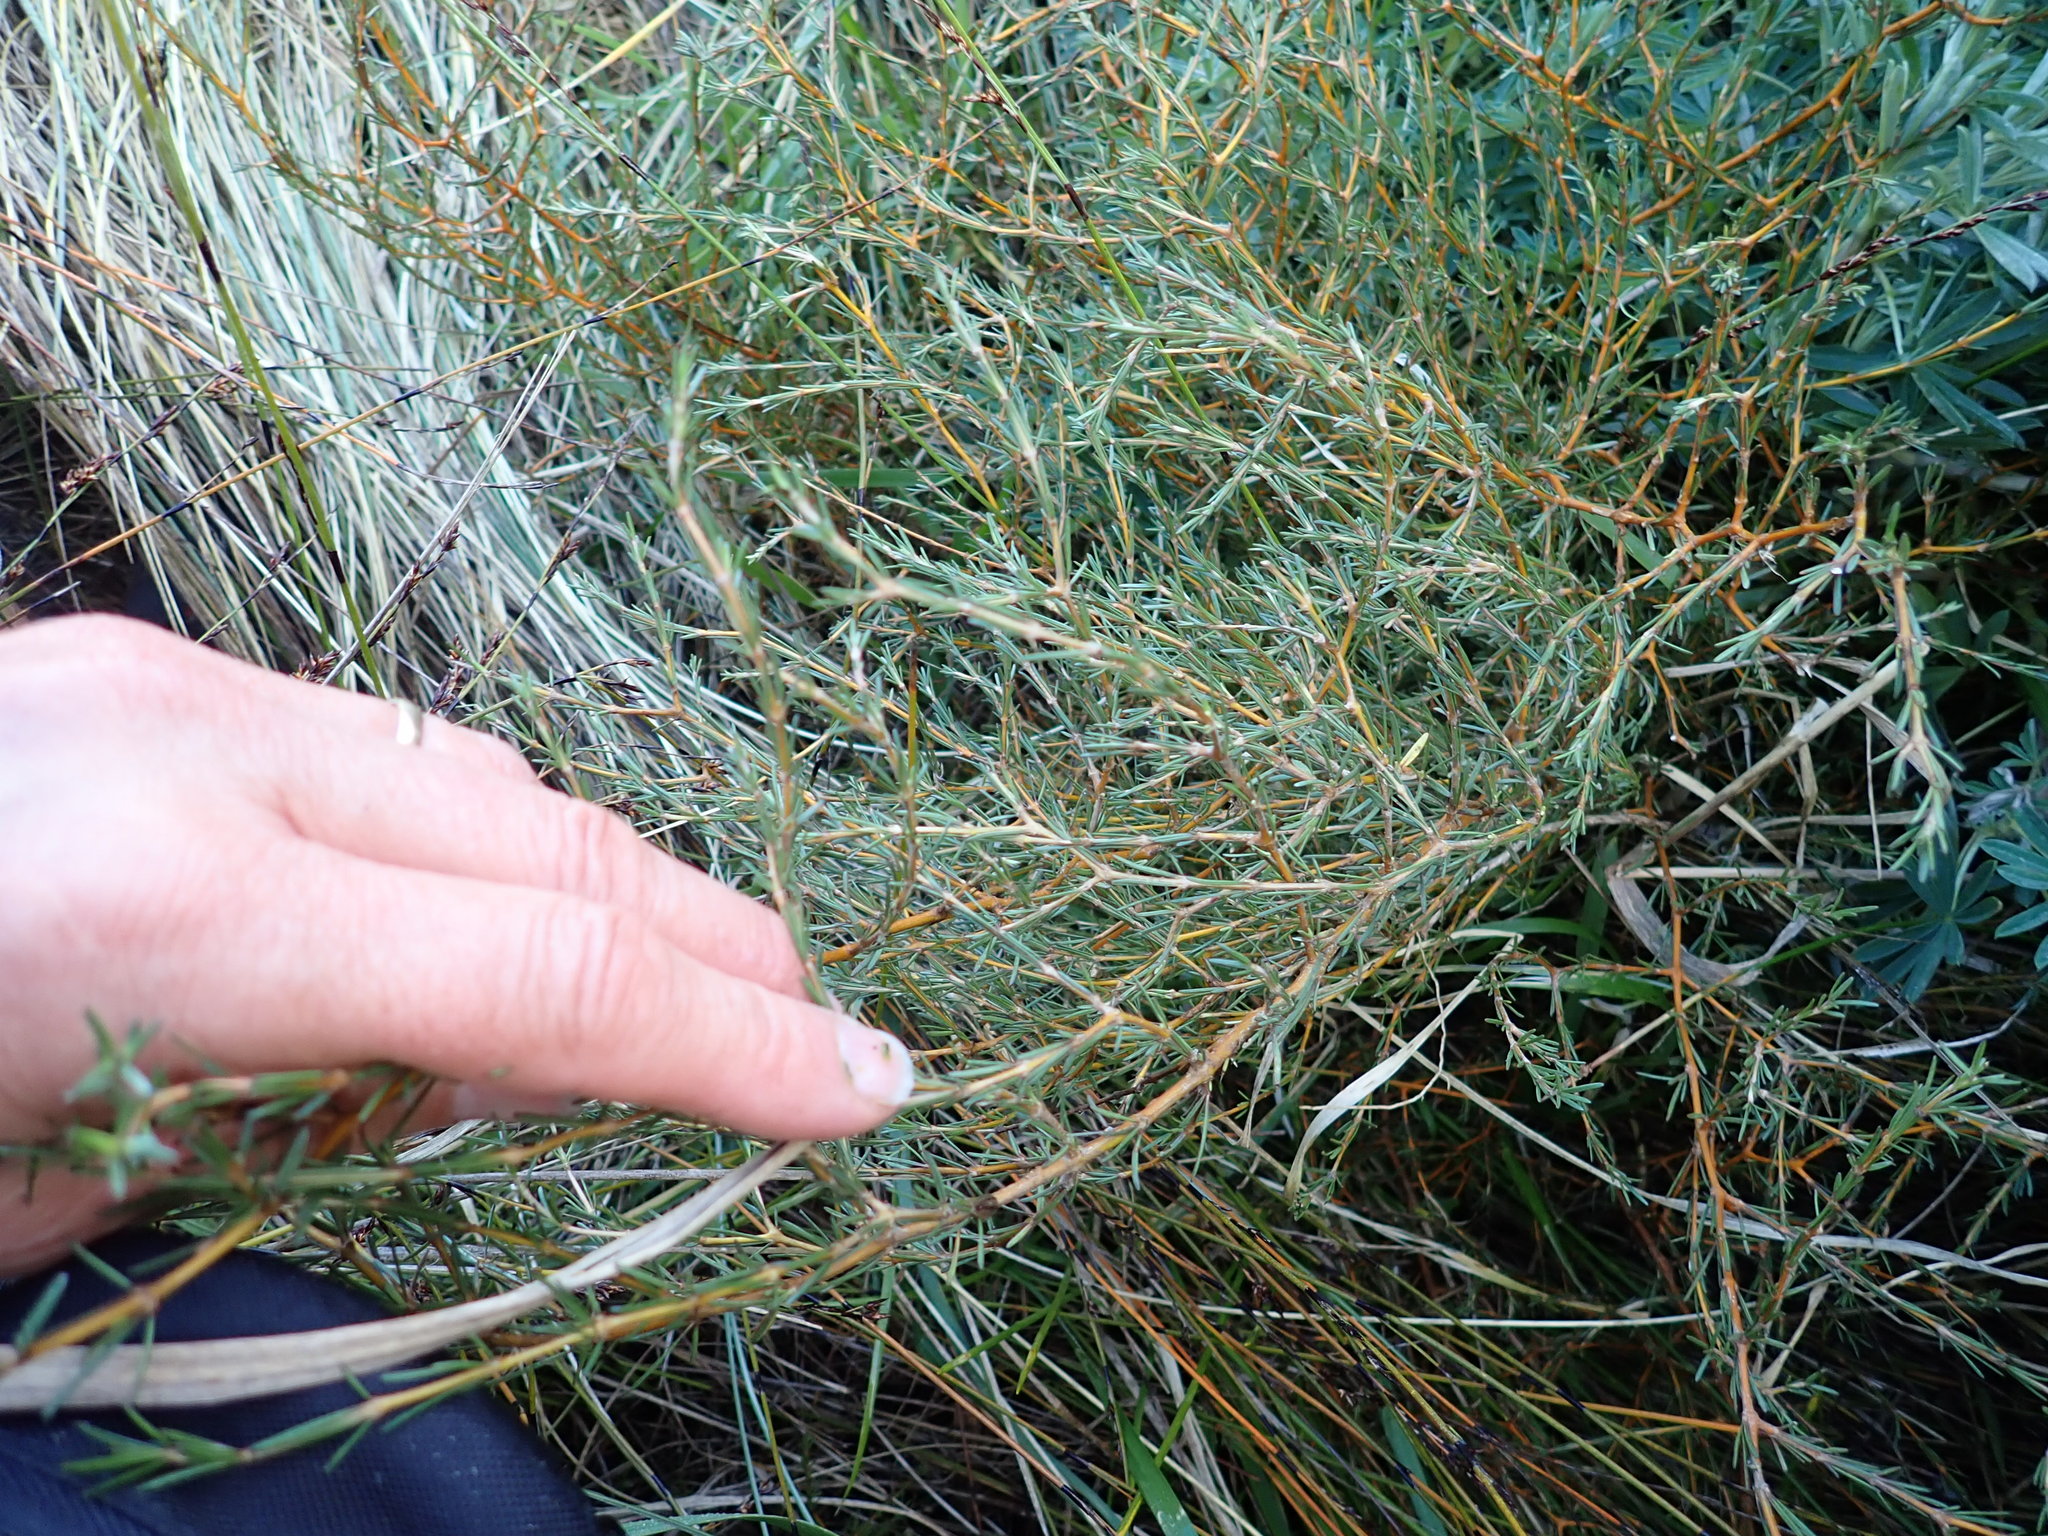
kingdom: Plantae
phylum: Tracheophyta
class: Magnoliopsida
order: Gentianales
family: Rubiaceae
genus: Coprosma
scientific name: Coprosma acerosa
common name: Sand coprosma
